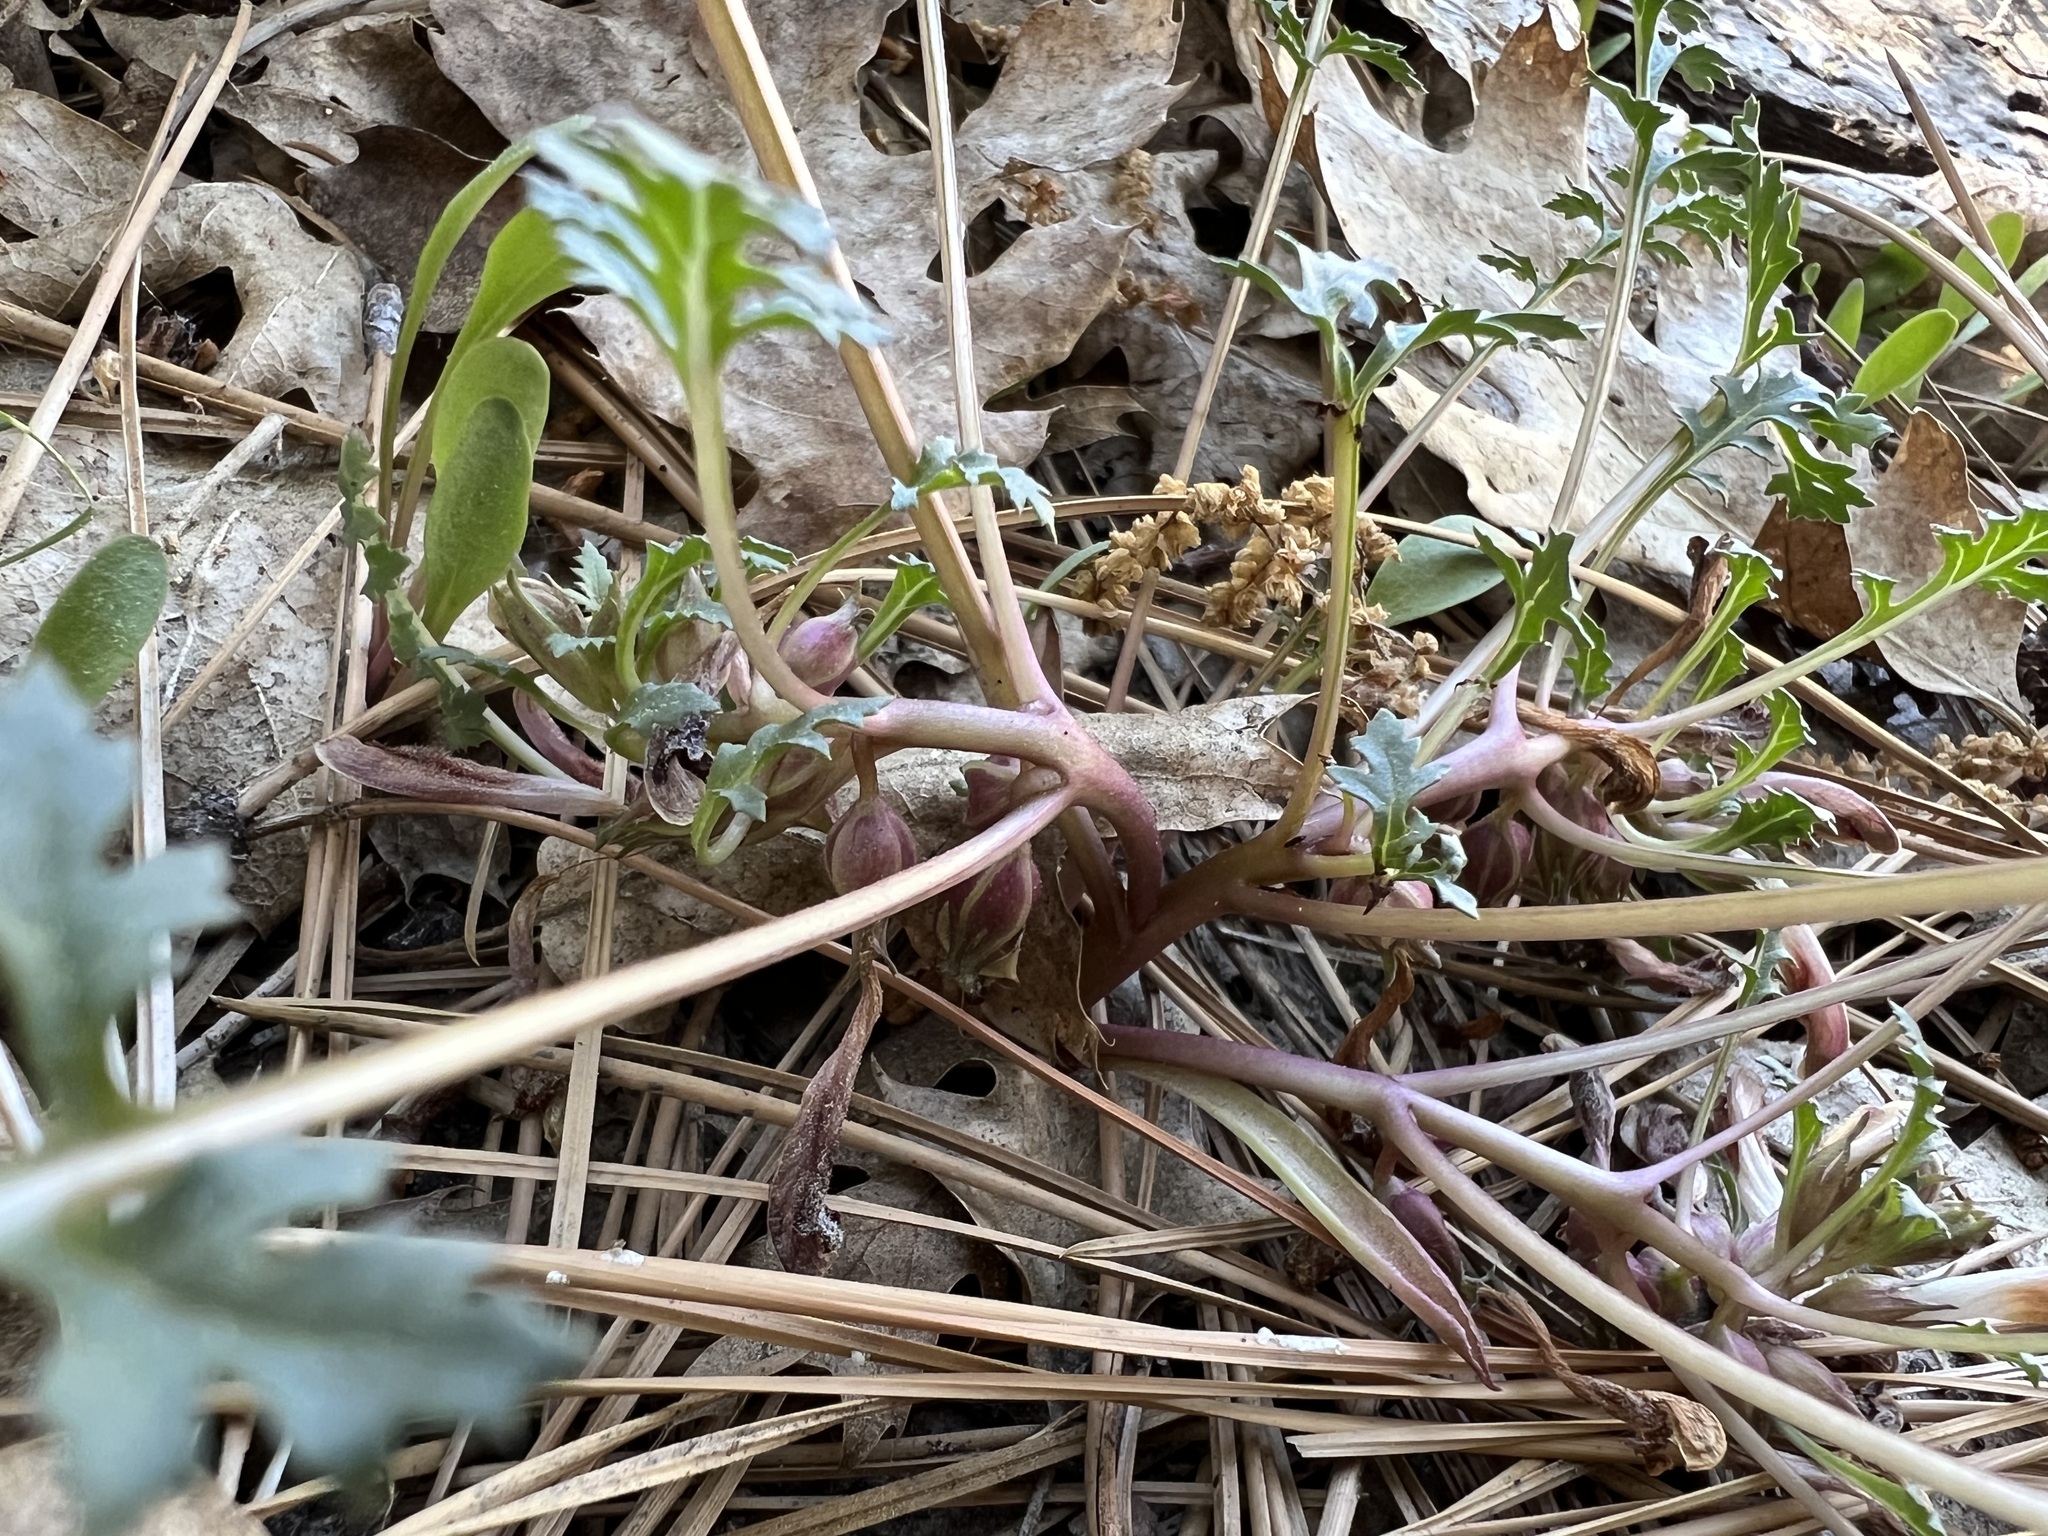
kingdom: Plantae
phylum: Tracheophyta
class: Magnoliopsida
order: Lamiales
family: Orobanchaceae
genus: Pedicularis
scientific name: Pedicularis semibarbata
